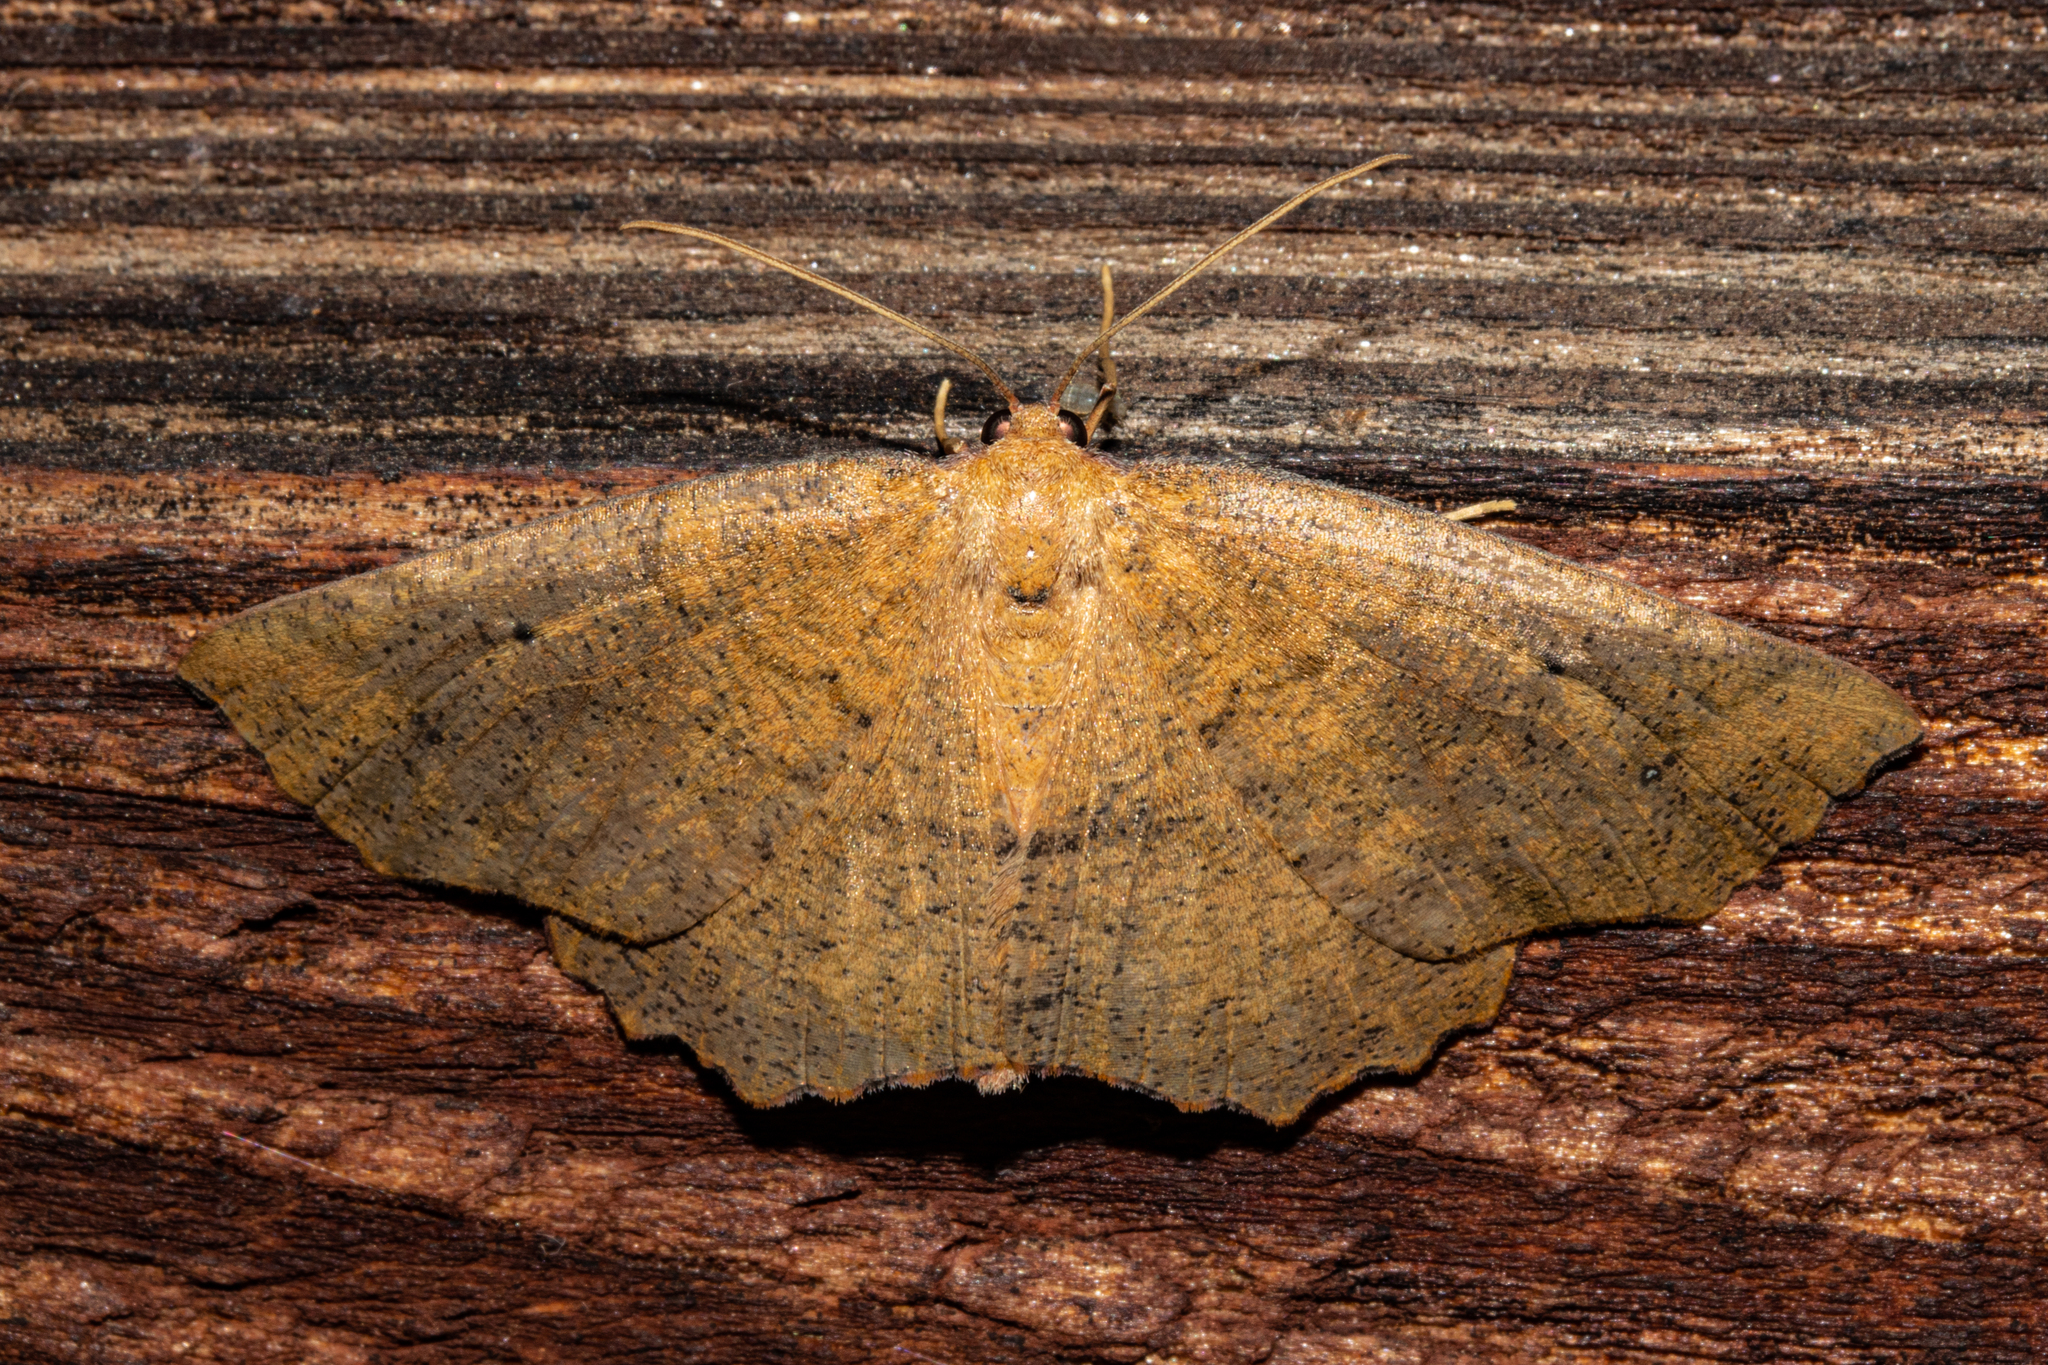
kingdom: Animalia
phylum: Arthropoda
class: Insecta
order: Lepidoptera
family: Geometridae
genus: Xyridacma
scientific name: Xyridacma ustaria
